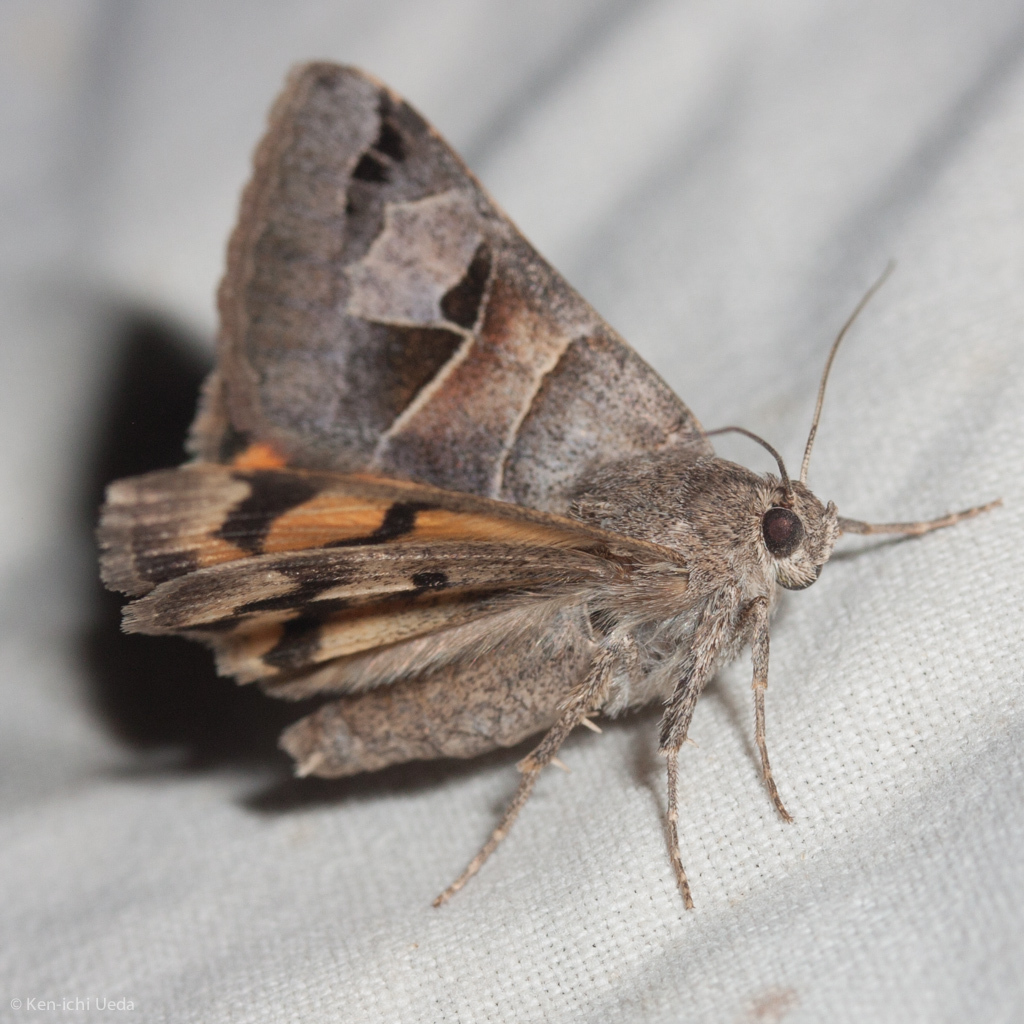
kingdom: Animalia
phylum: Arthropoda
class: Insecta
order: Lepidoptera
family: Erebidae
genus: Drasteria
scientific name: Drasteria edwardsii
